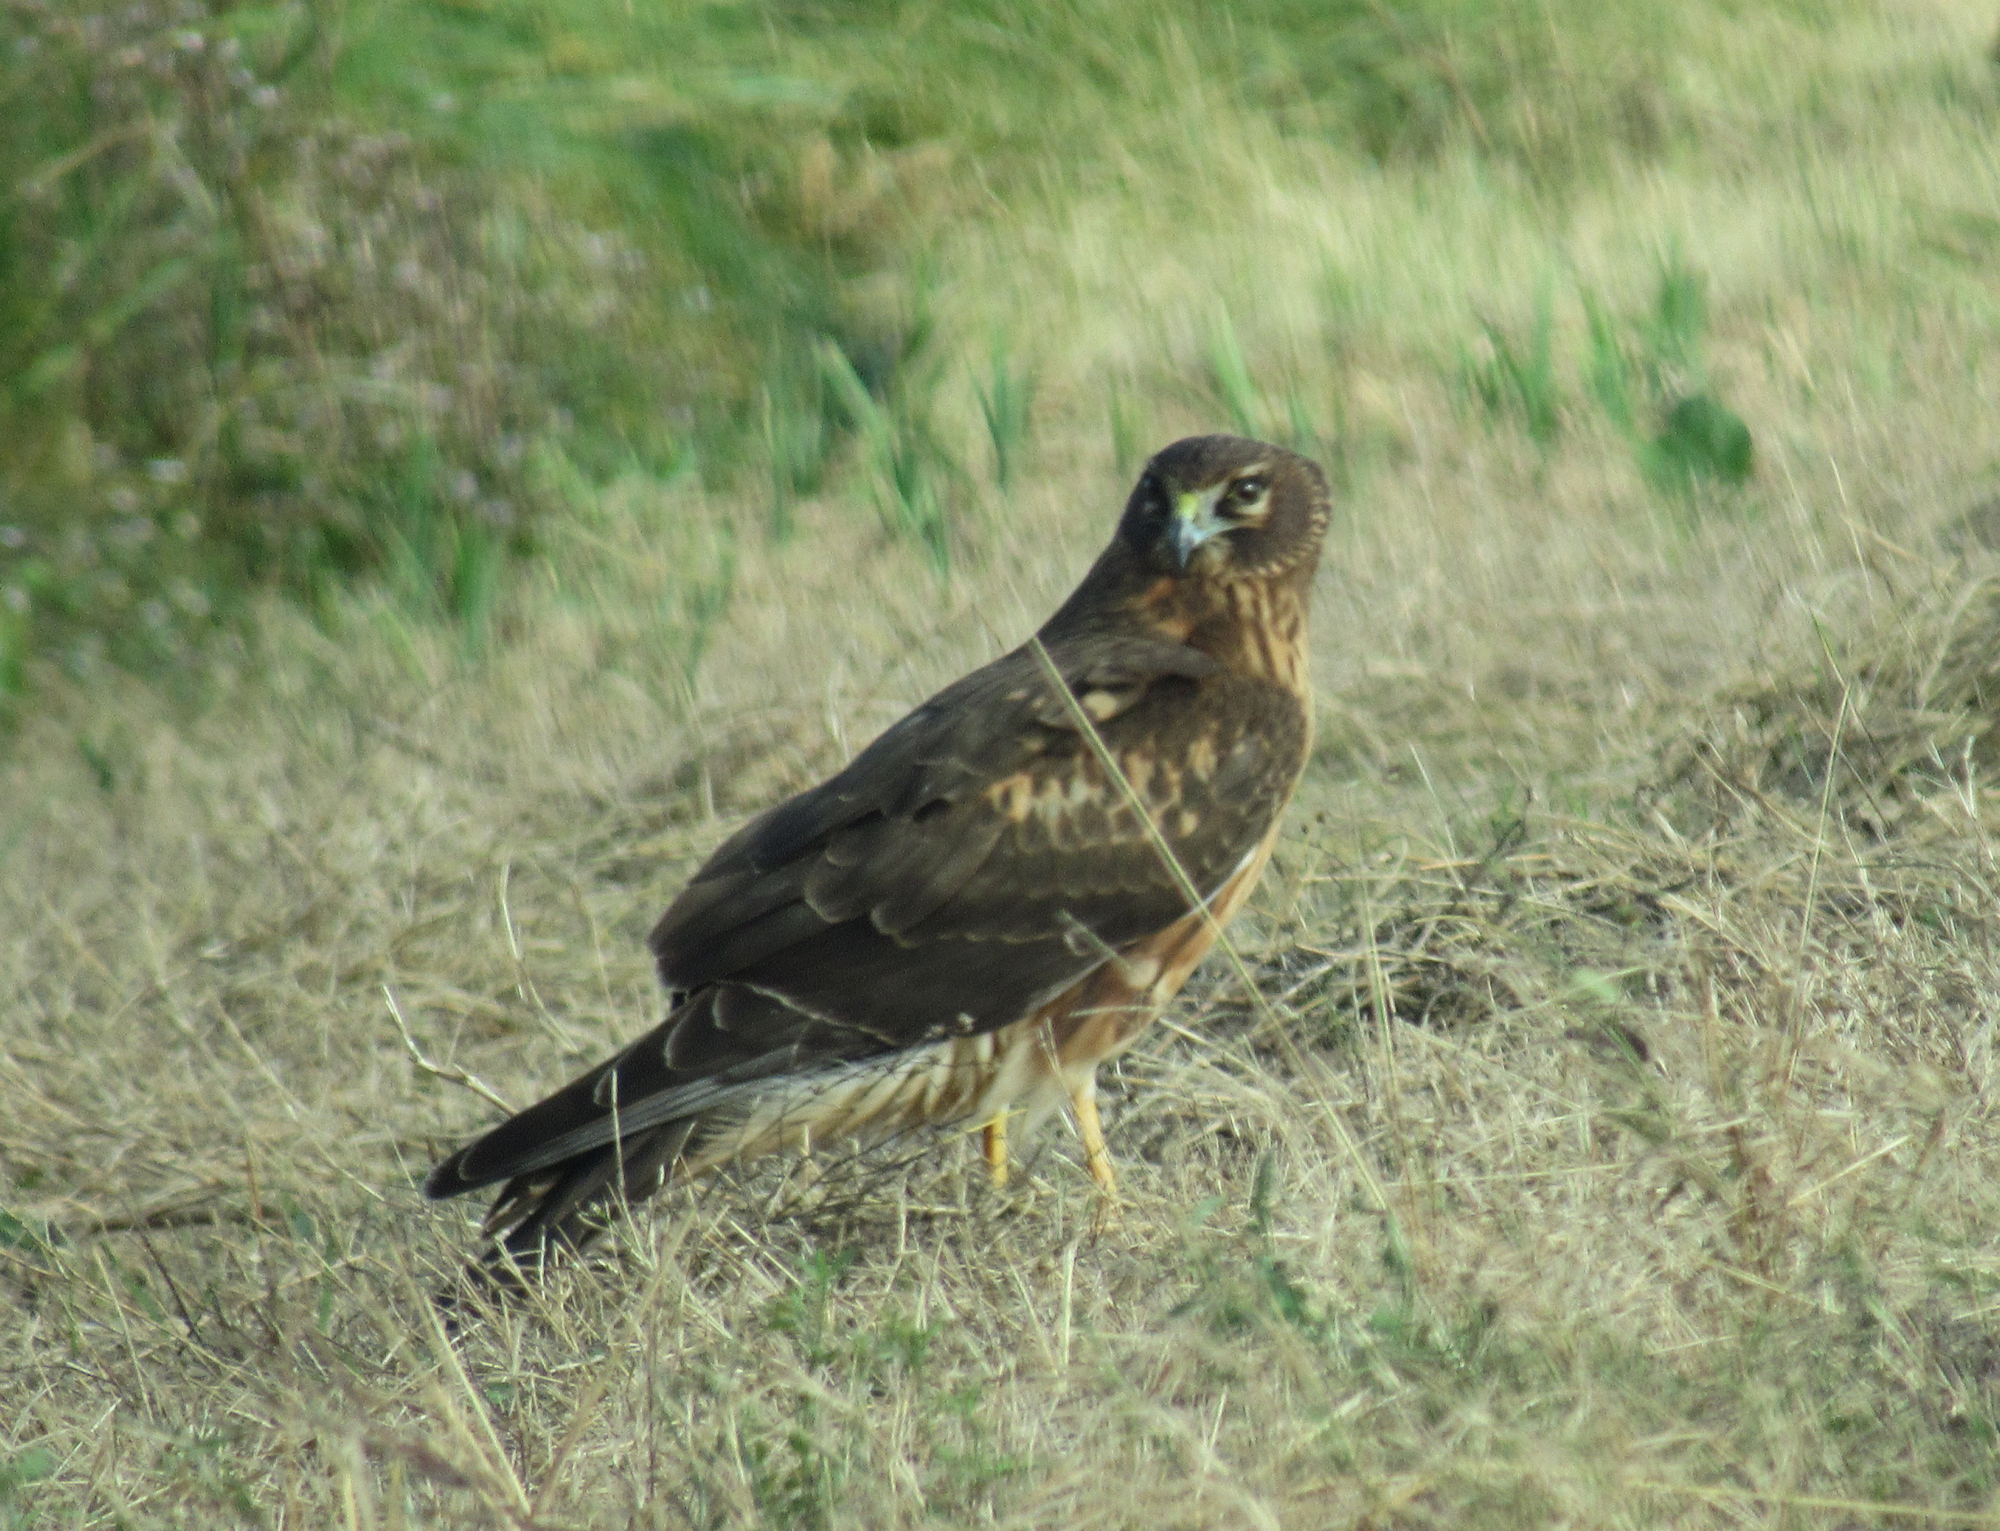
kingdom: Animalia
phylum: Chordata
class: Aves
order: Accipitriformes
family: Accipitridae
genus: Circus
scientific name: Circus cyaneus
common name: Hen harrier
